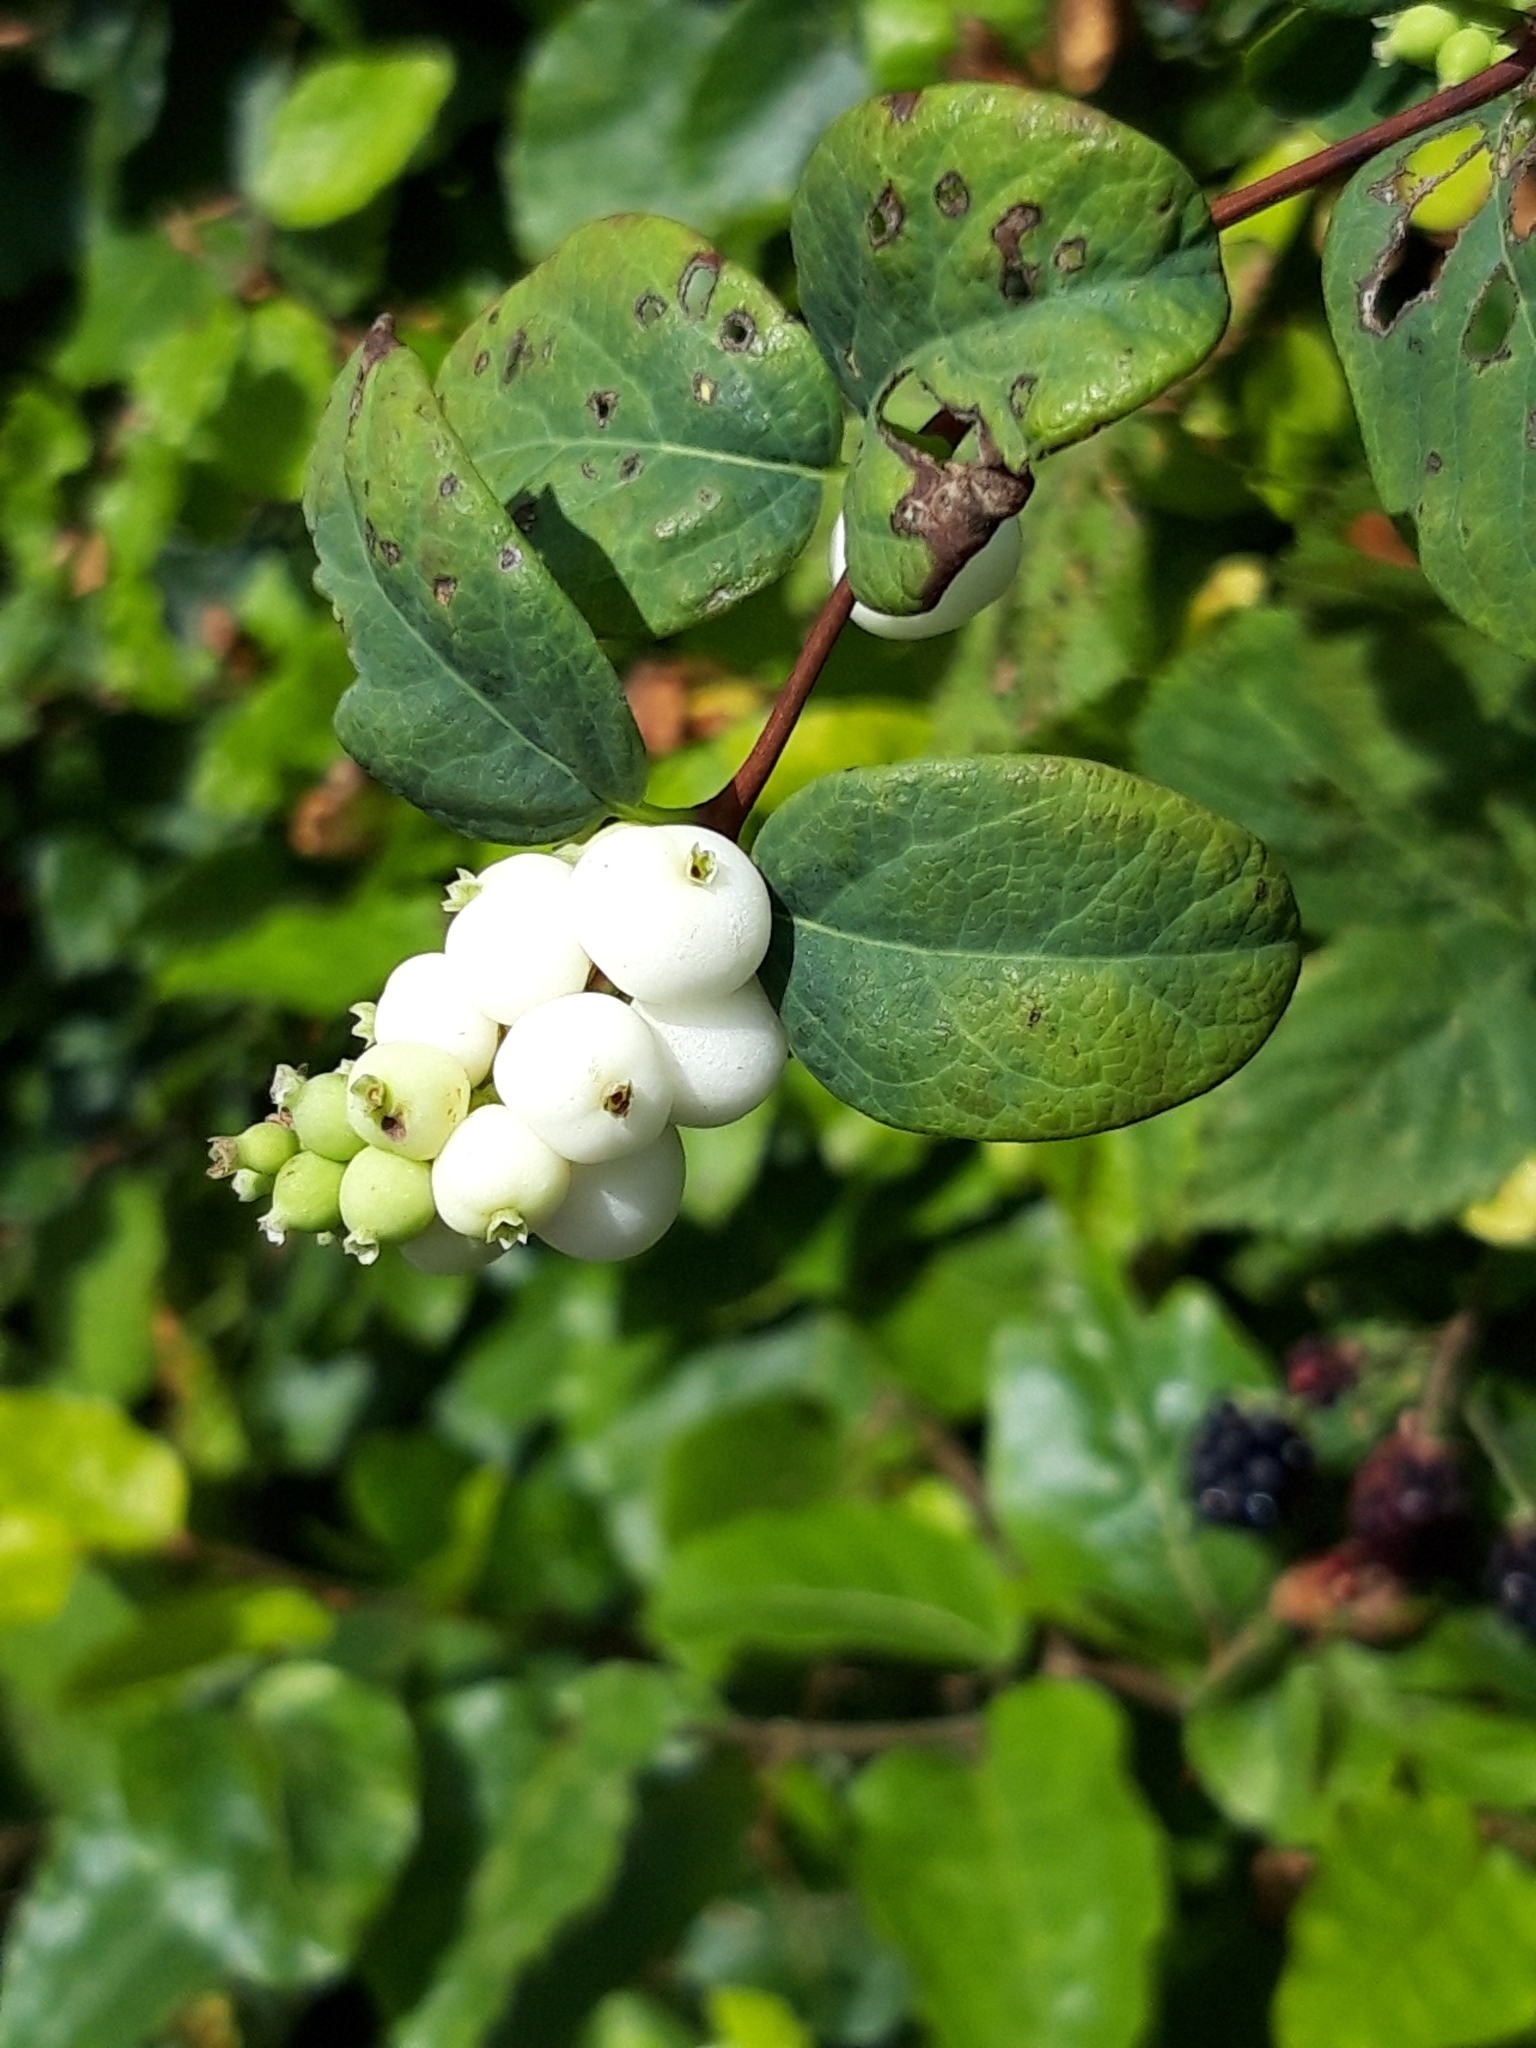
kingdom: Plantae
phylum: Tracheophyta
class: Magnoliopsida
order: Dipsacales
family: Caprifoliaceae
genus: Symphoricarpos
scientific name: Symphoricarpos albus
